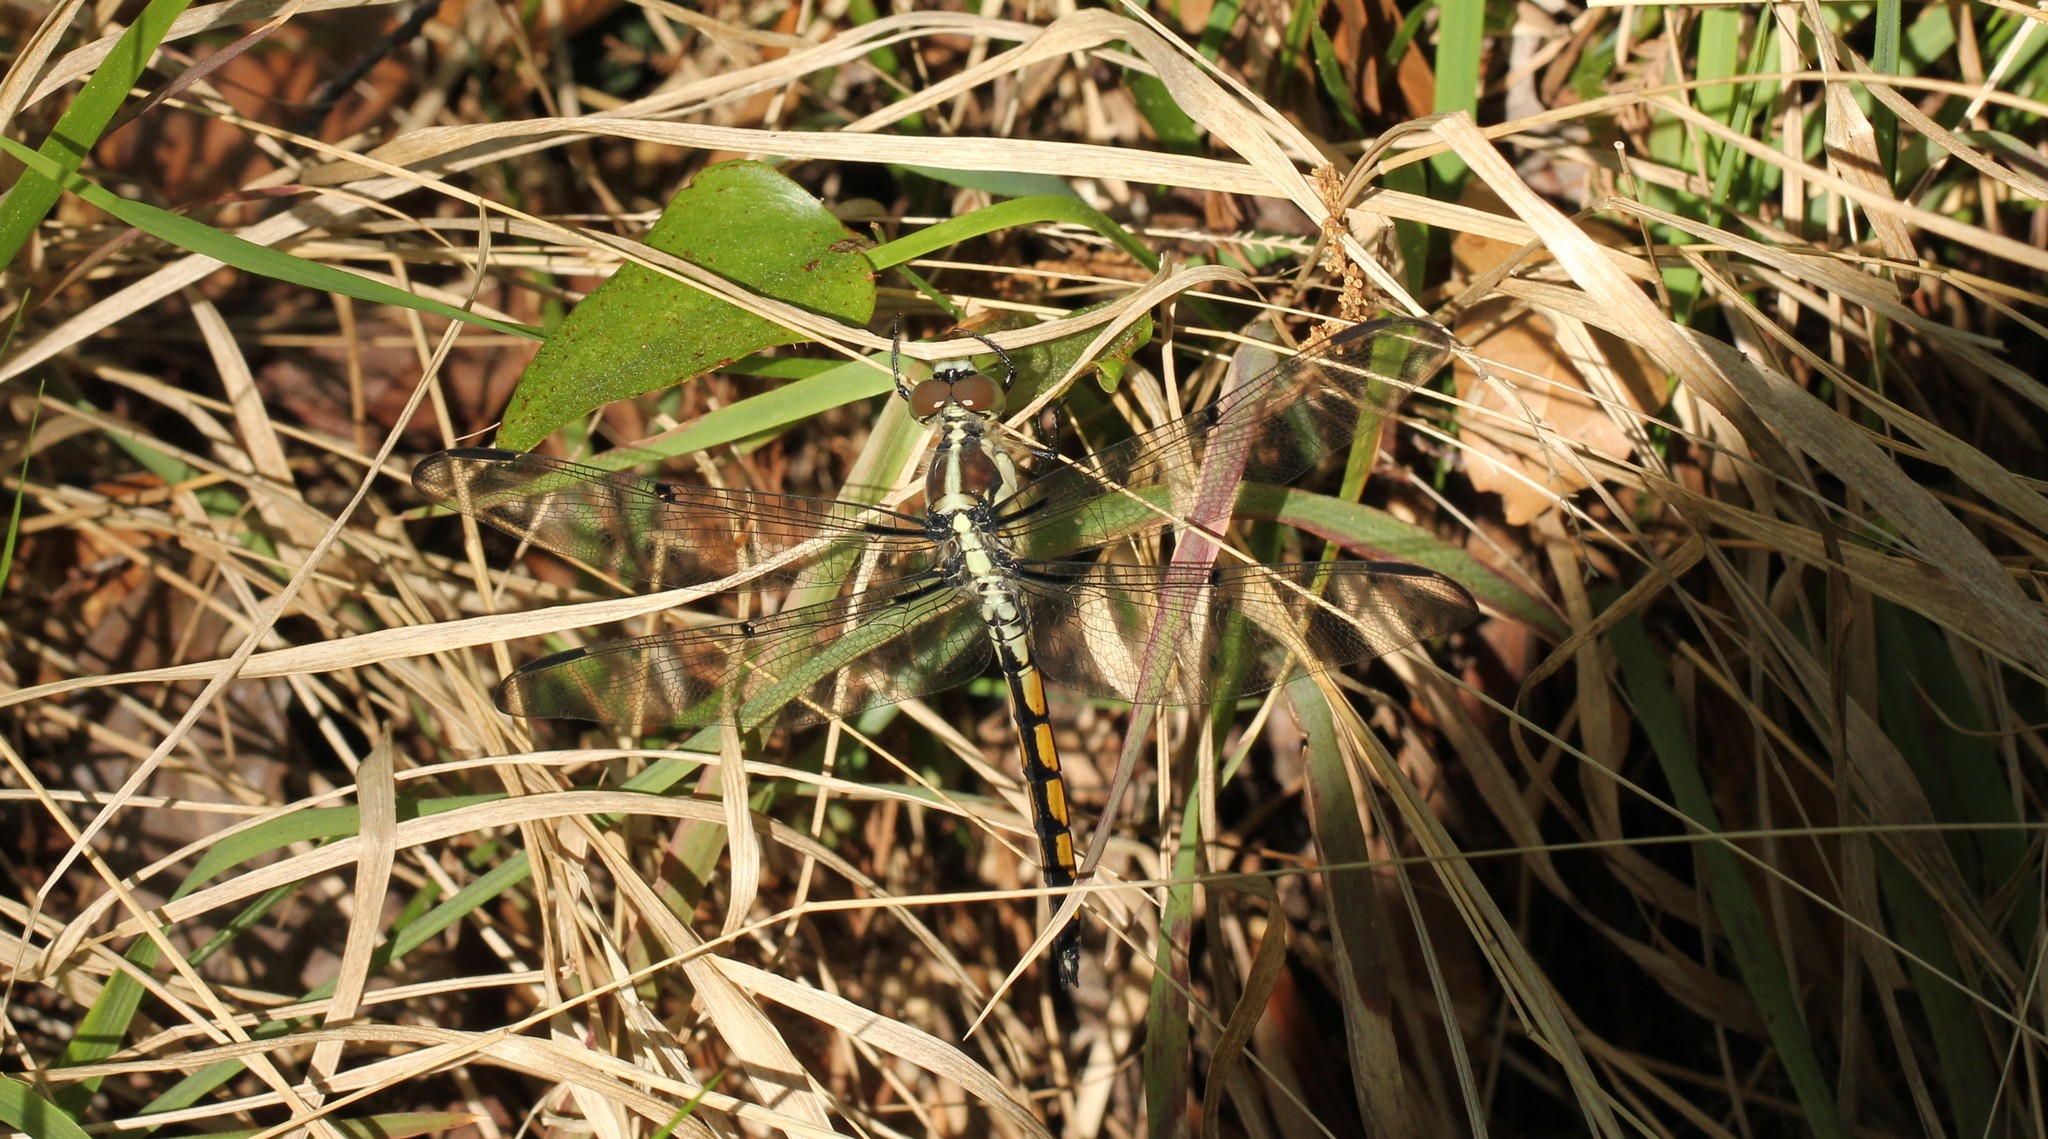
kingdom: Animalia
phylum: Arthropoda
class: Insecta
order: Odonata
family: Libellulidae
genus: Libellula
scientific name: Libellula vibrans
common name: Great blue skimmer
